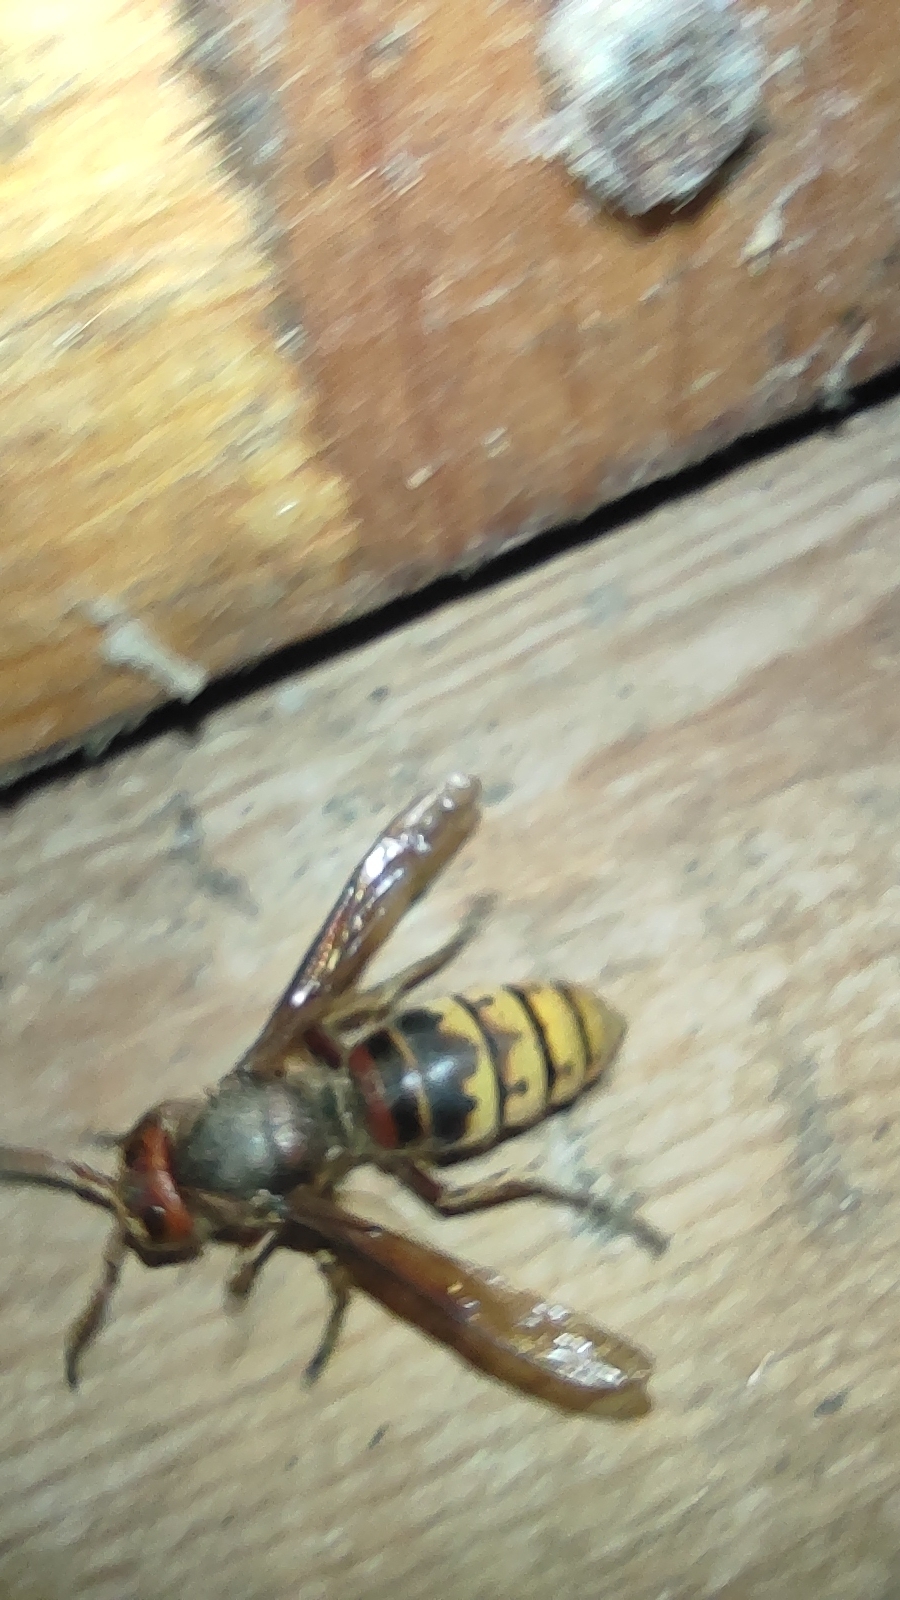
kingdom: Animalia
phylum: Arthropoda
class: Insecta
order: Hymenoptera
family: Vespidae
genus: Vespa
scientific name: Vespa crabro
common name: Hornet
